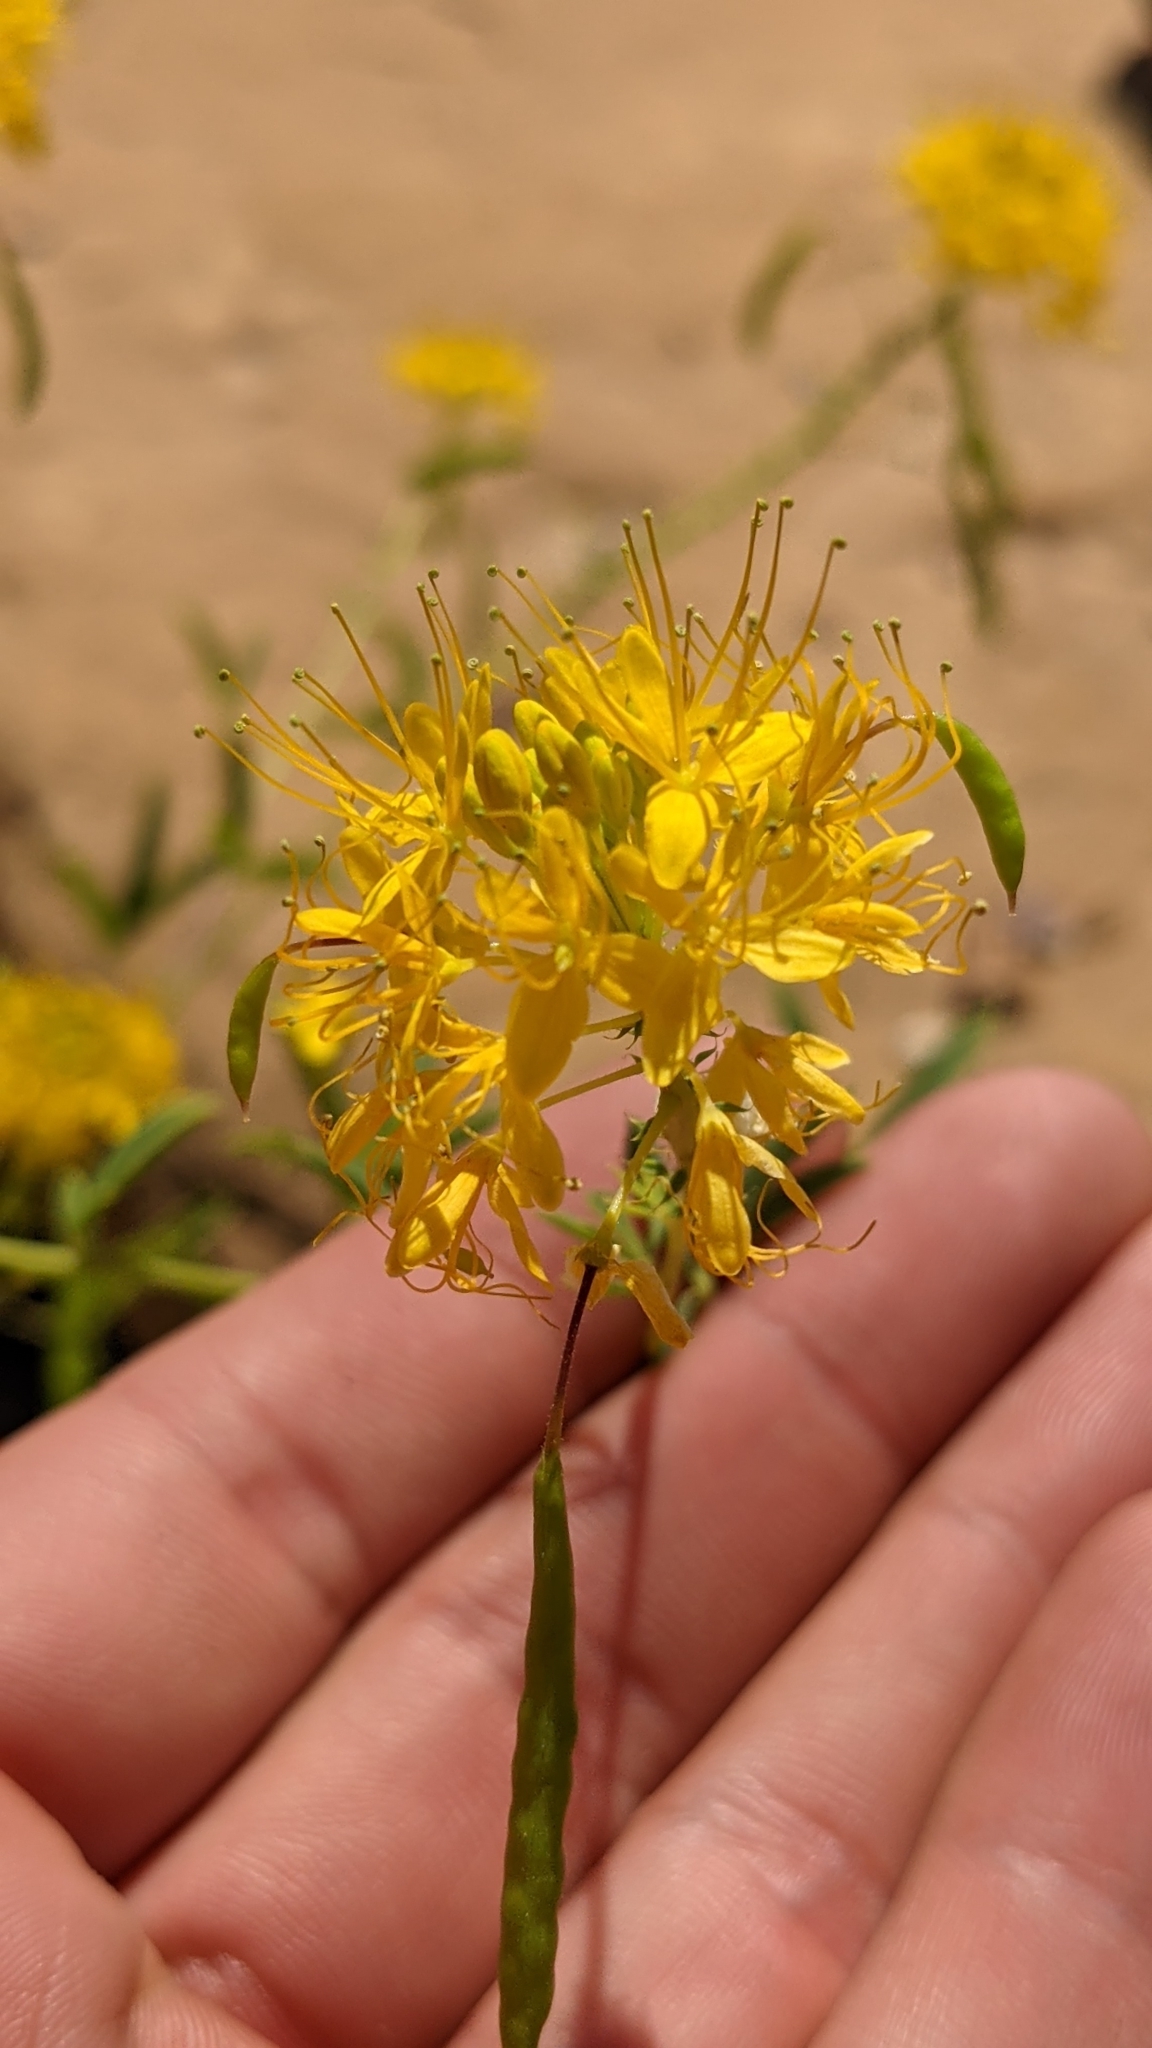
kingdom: Plantae
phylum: Tracheophyta
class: Magnoliopsida
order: Brassicales
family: Cleomaceae
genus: Cleomella
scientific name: Cleomella lutea
